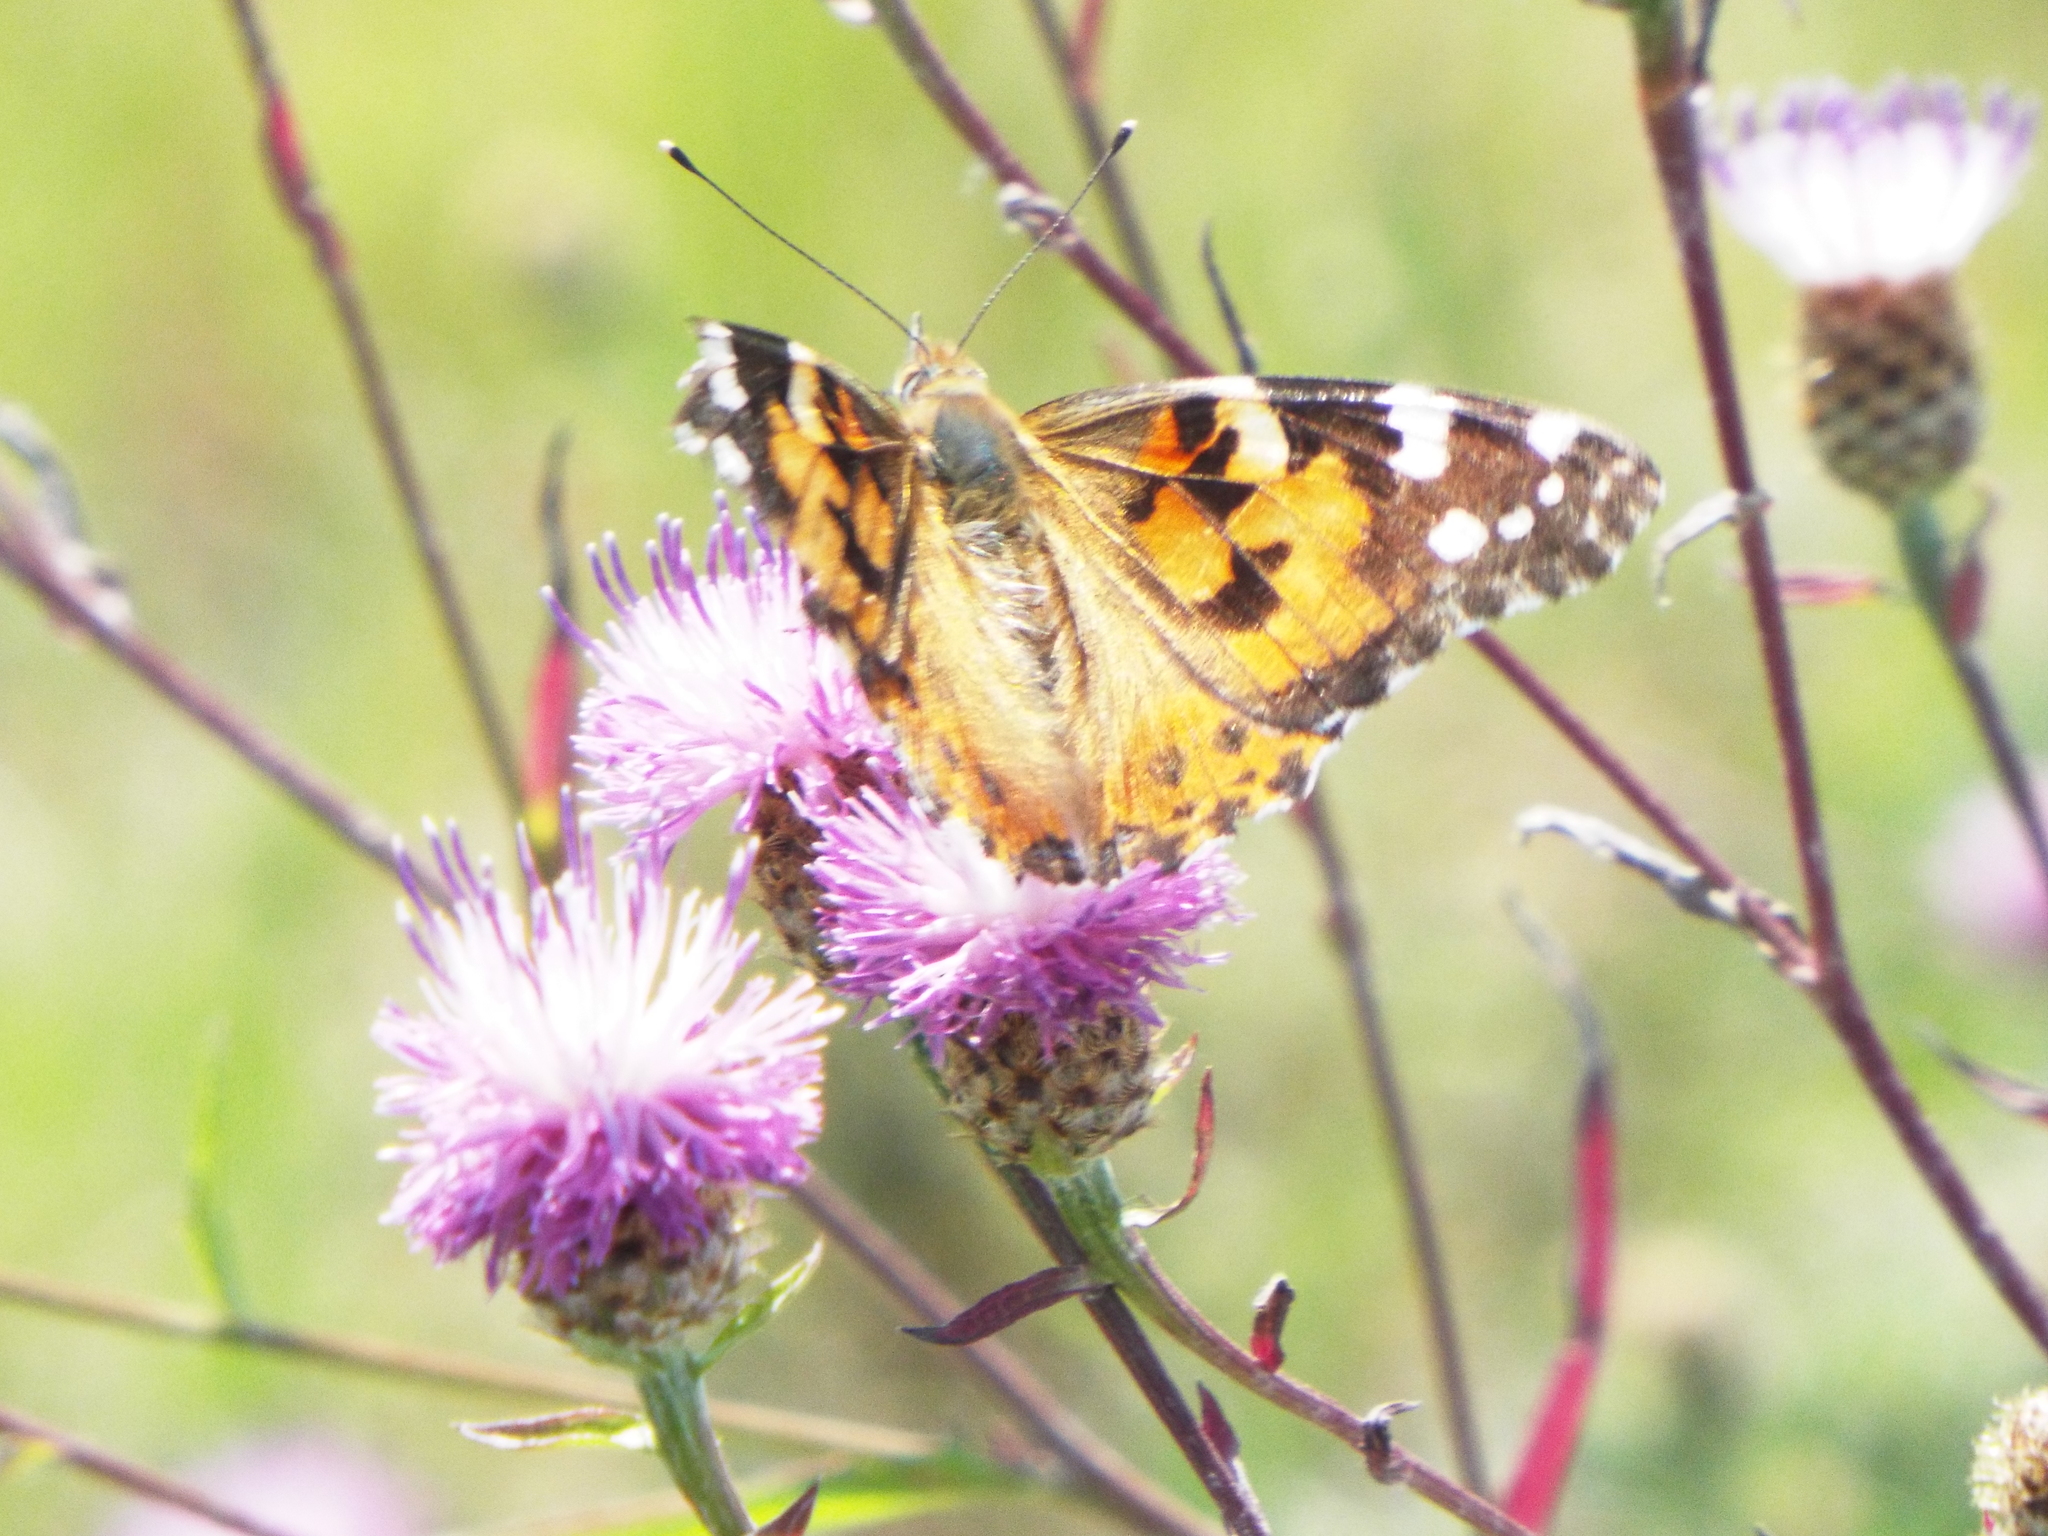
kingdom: Animalia
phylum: Arthropoda
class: Insecta
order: Lepidoptera
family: Nymphalidae
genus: Vanessa
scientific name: Vanessa cardui
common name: Painted lady
